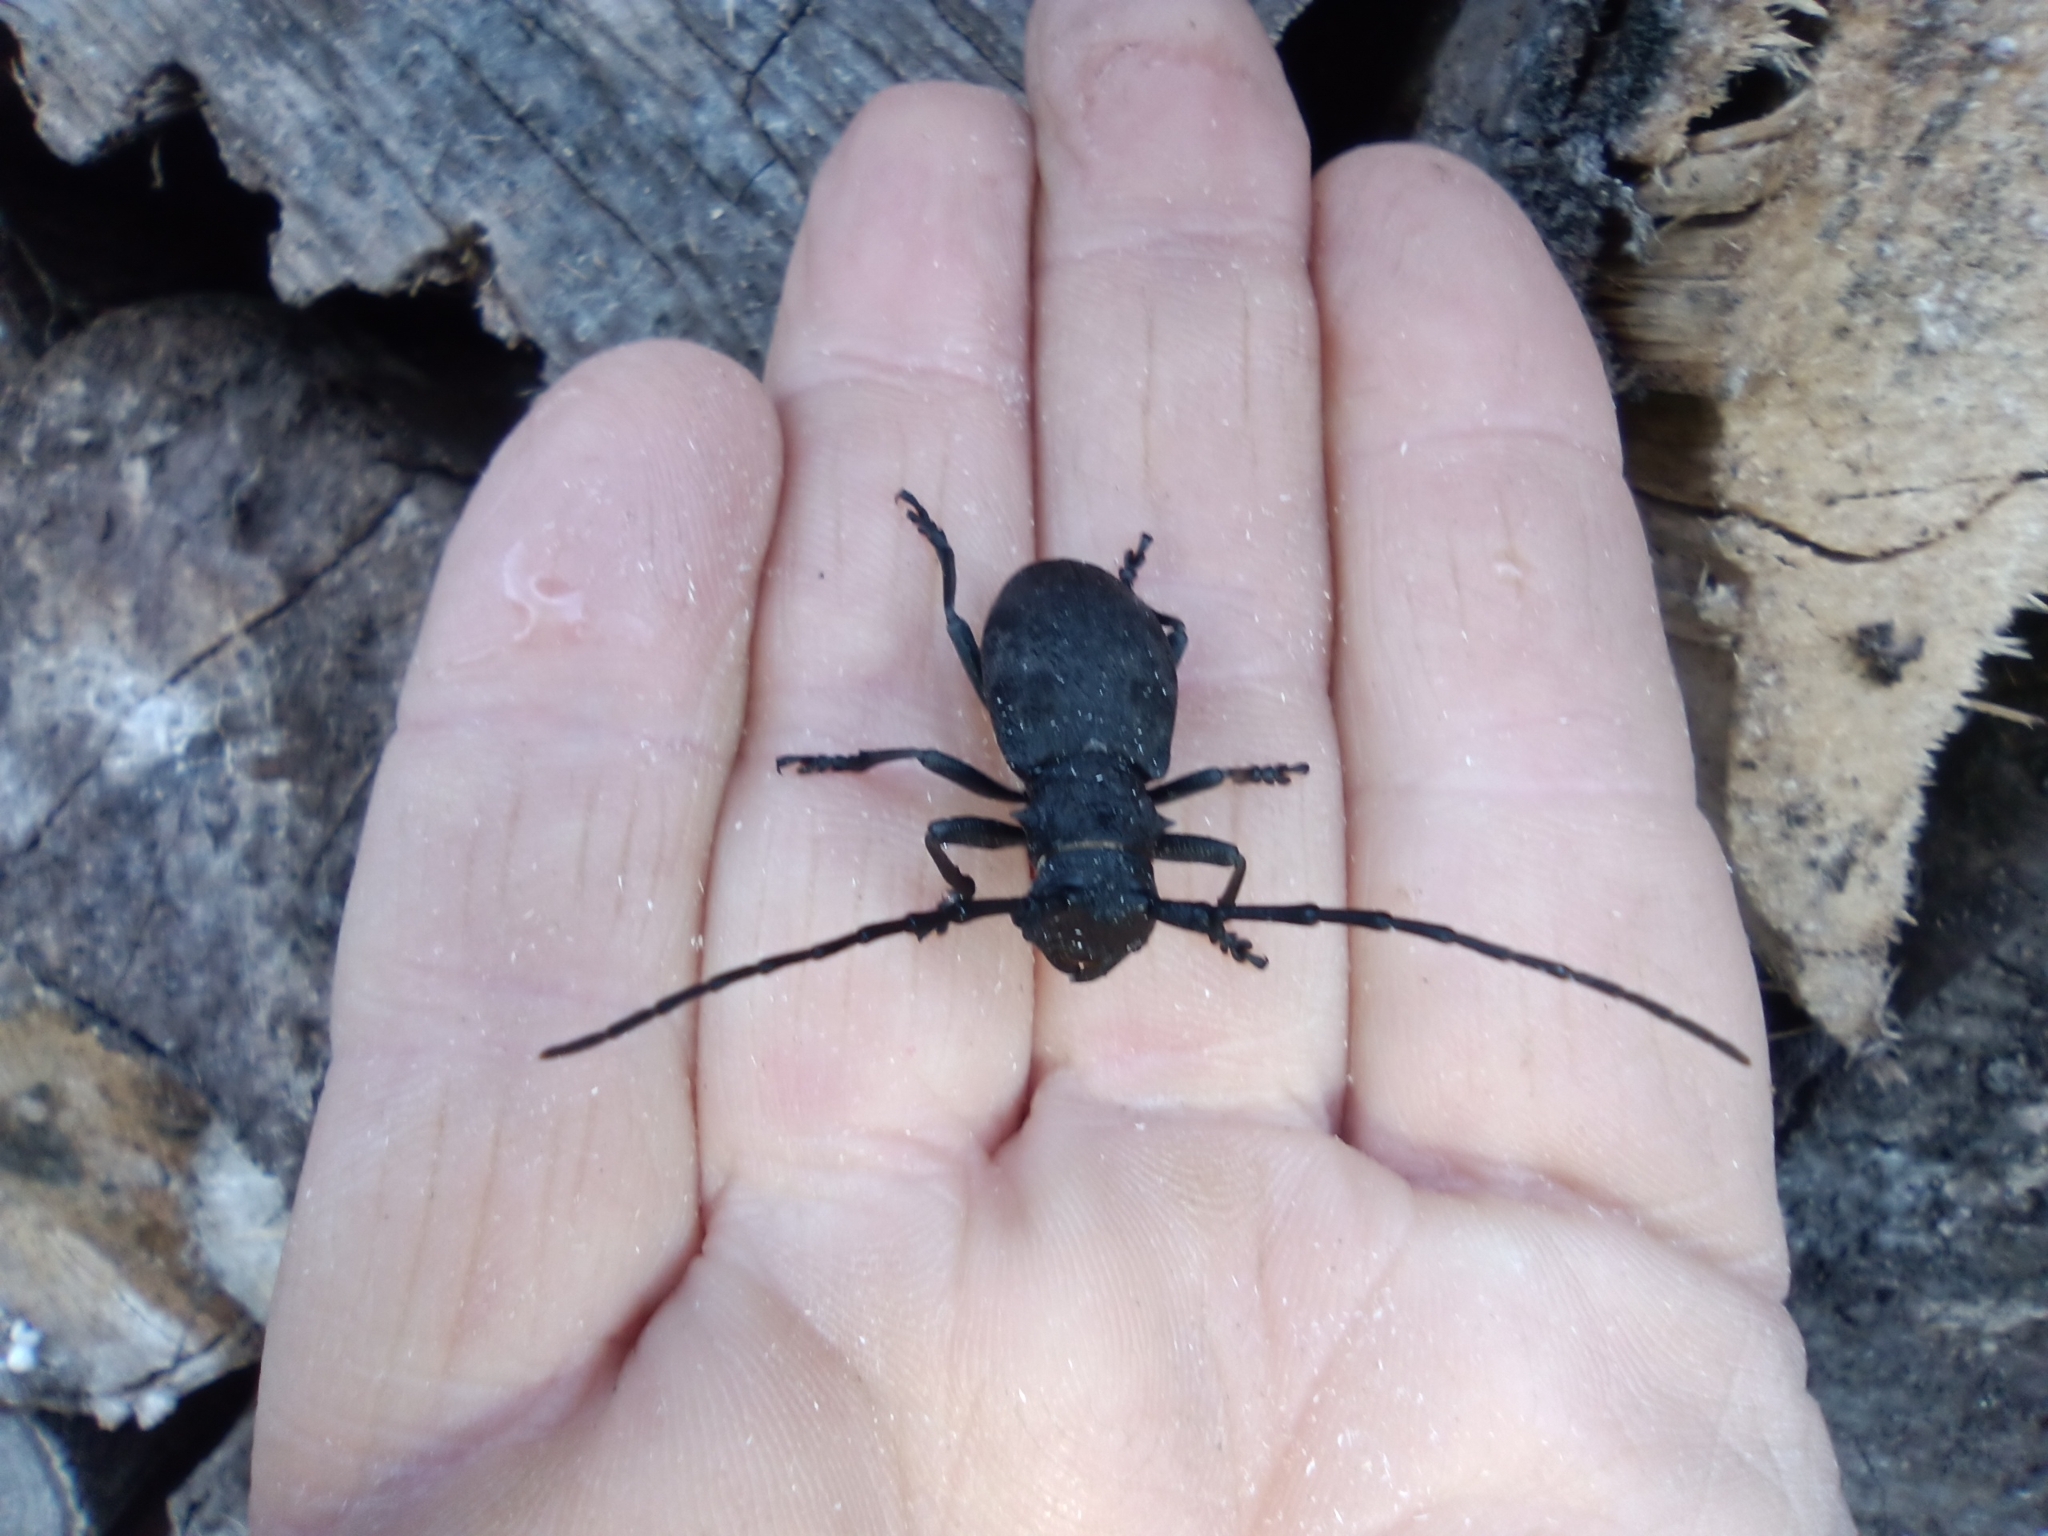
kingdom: Animalia
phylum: Arthropoda
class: Insecta
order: Coleoptera
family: Cerambycidae
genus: Morimus
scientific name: Morimus asper
